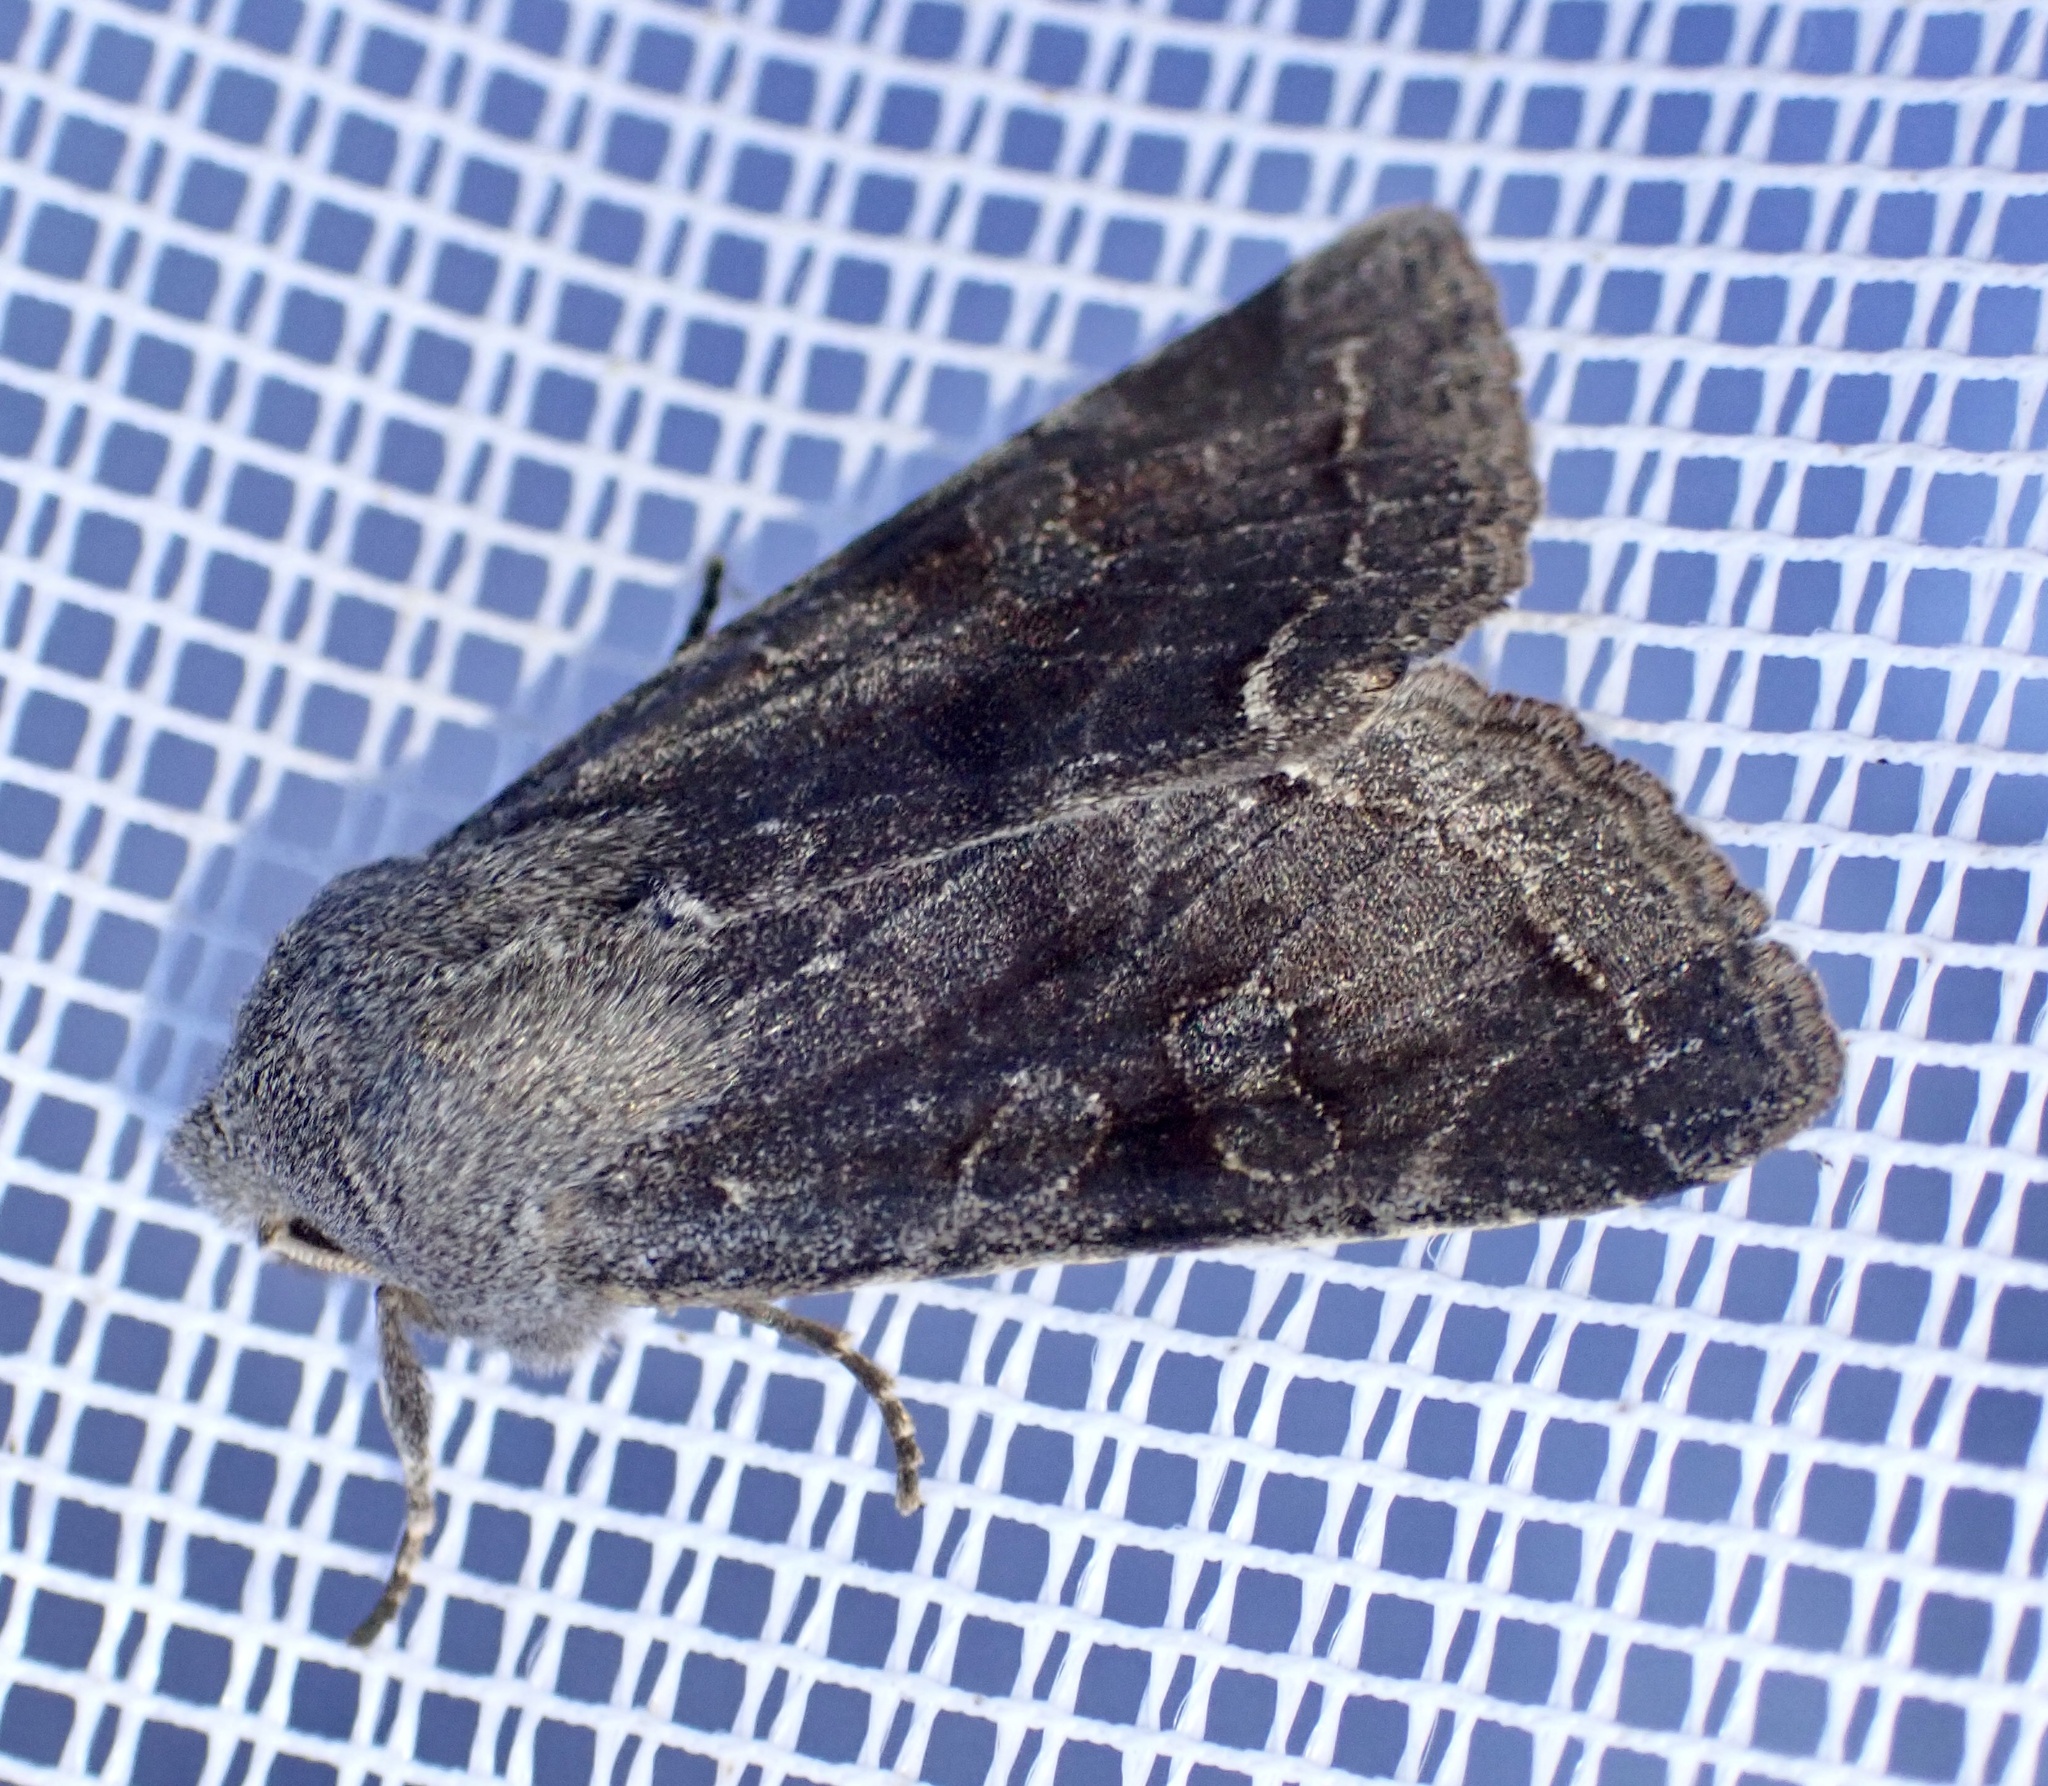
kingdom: Animalia
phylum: Arthropoda
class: Insecta
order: Lepidoptera
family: Noctuidae
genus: Orthosia
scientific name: Orthosia incerta
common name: Clouded drab
